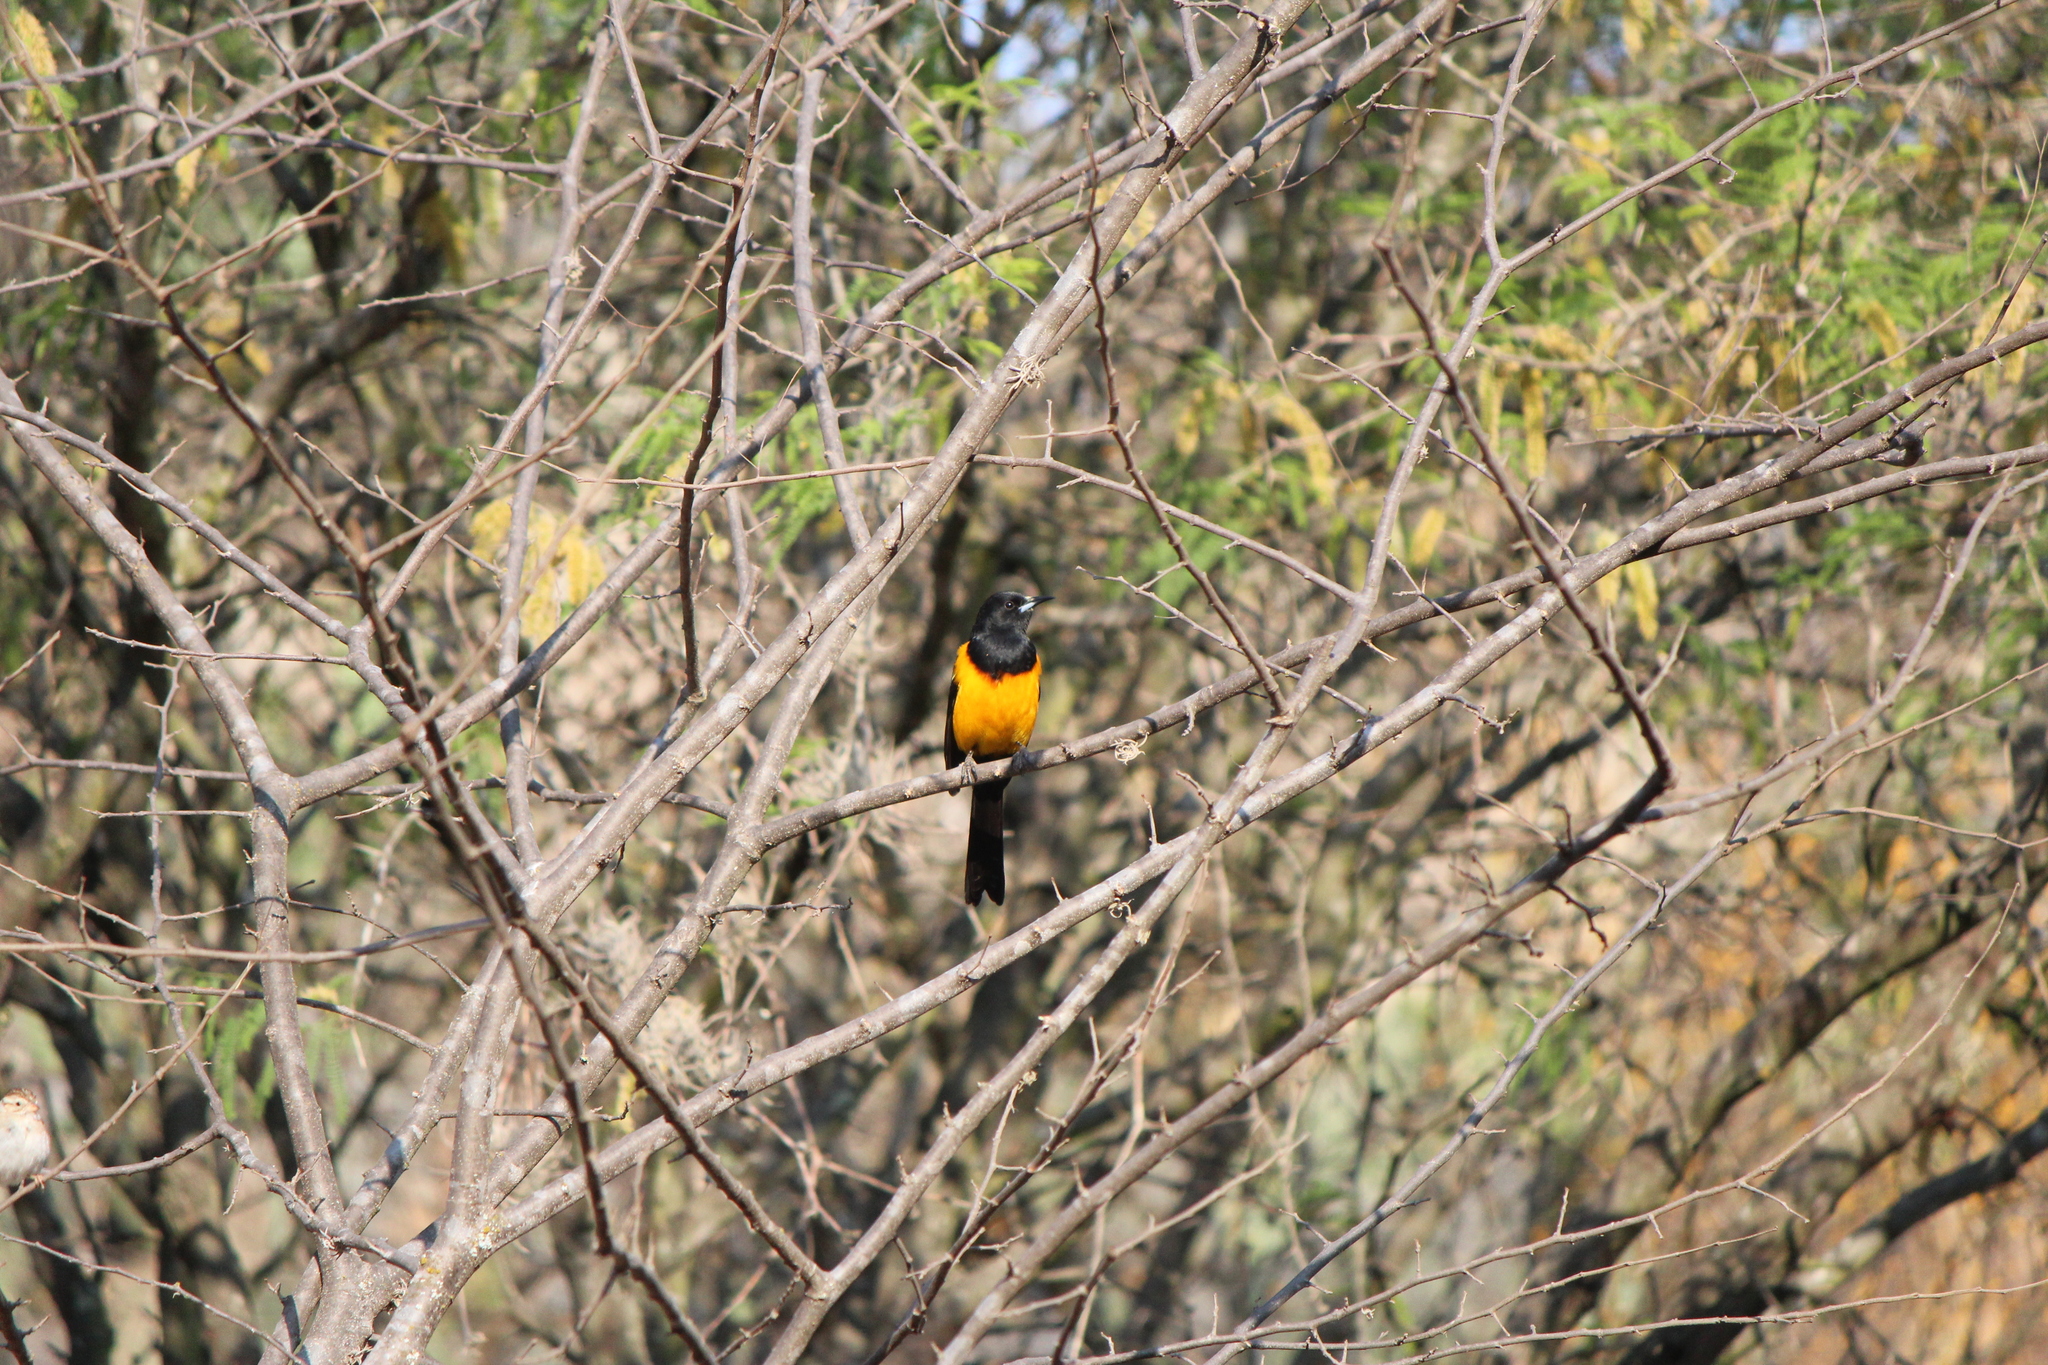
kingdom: Animalia
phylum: Chordata
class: Aves
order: Passeriformes
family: Icteridae
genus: Icterus
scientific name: Icterus wagleri
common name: Black-vented oriole
